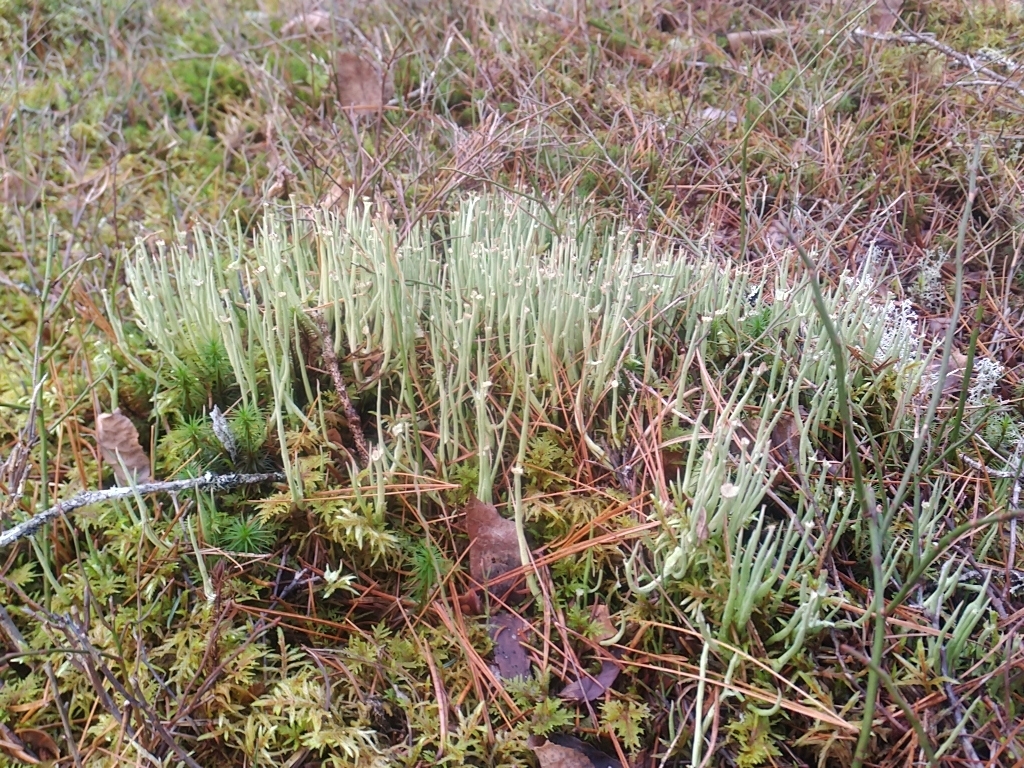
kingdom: Fungi
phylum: Ascomycota
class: Lecanoromycetes
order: Lecanorales
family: Cladoniaceae
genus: Cladonia
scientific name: Cladonia maxima
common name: Giant cladonia lichen
